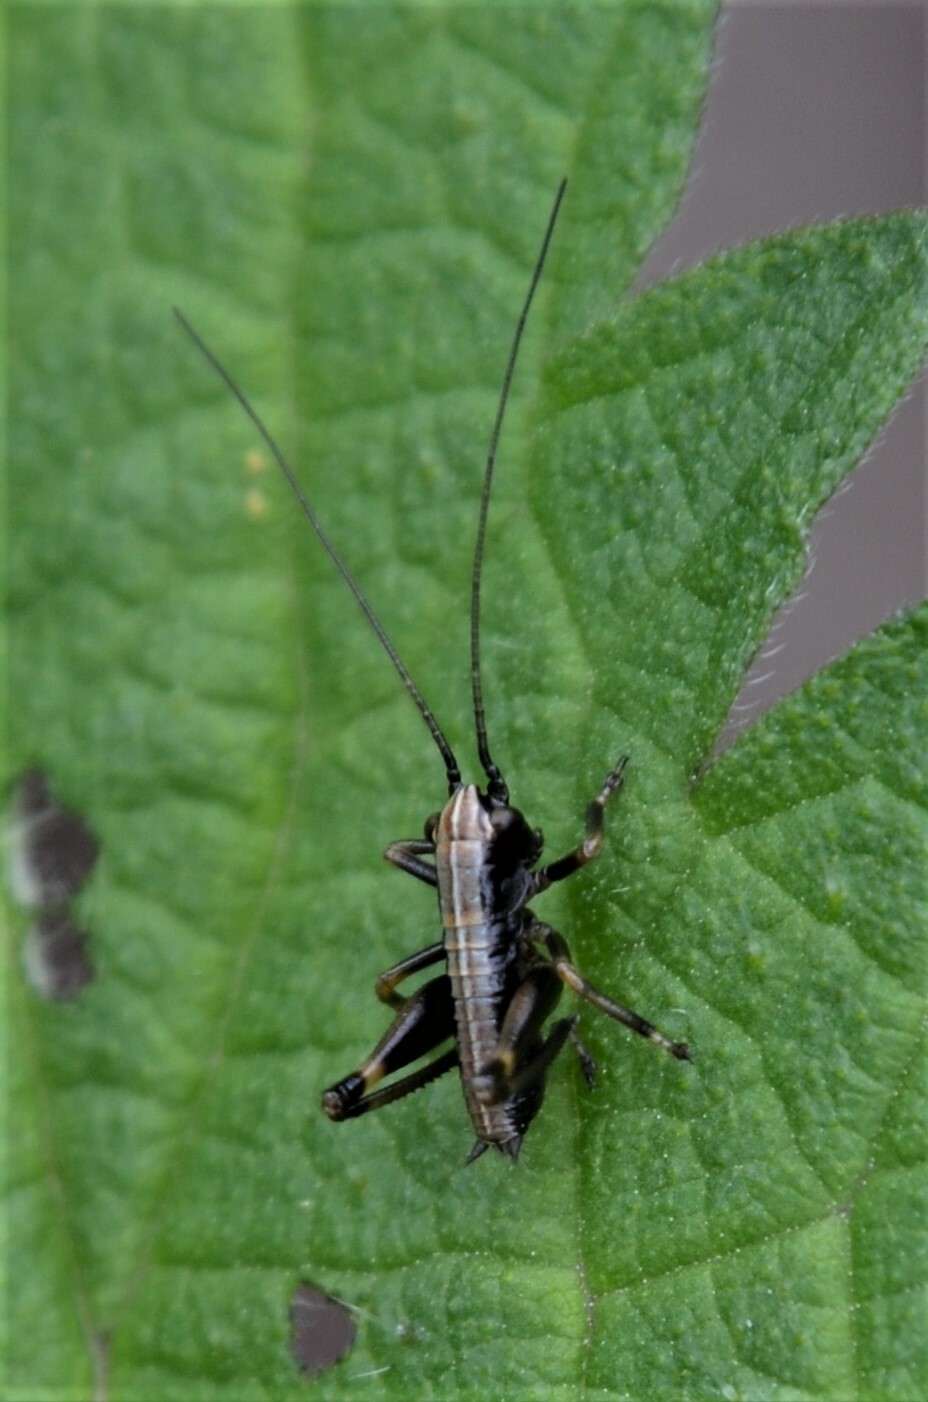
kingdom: Animalia
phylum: Arthropoda
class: Insecta
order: Orthoptera
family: Tettigoniidae
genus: Pholidoptera
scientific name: Pholidoptera griseoaptera
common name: Dark bush-cricket
